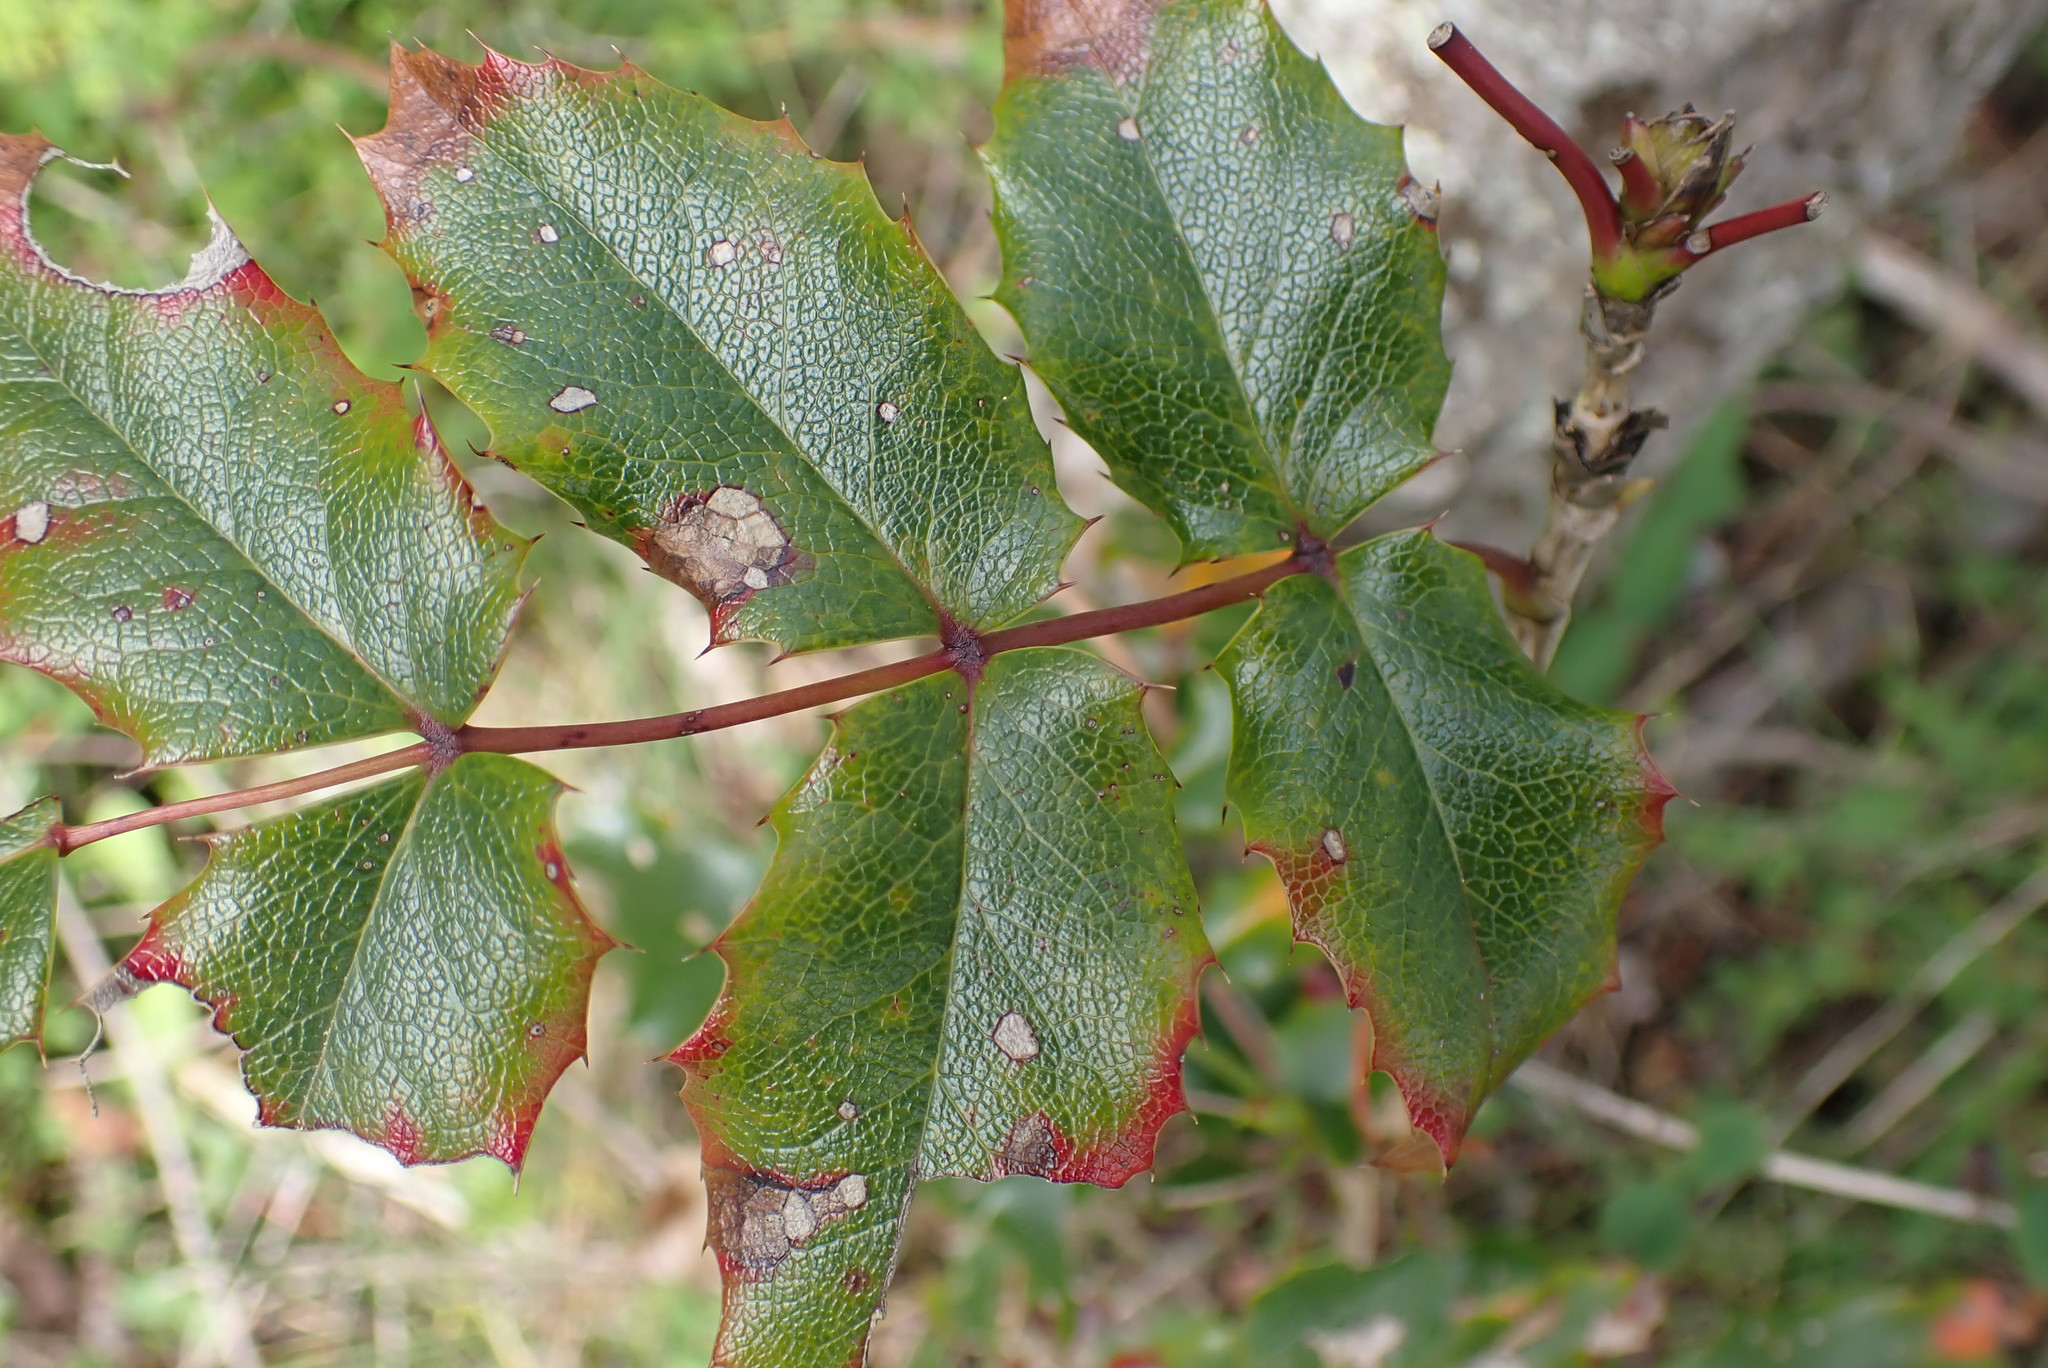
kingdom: Plantae
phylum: Tracheophyta
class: Magnoliopsida
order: Ranunculales
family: Berberidaceae
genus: Mahonia
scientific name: Mahonia aquifolium
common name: Oregon-grape
